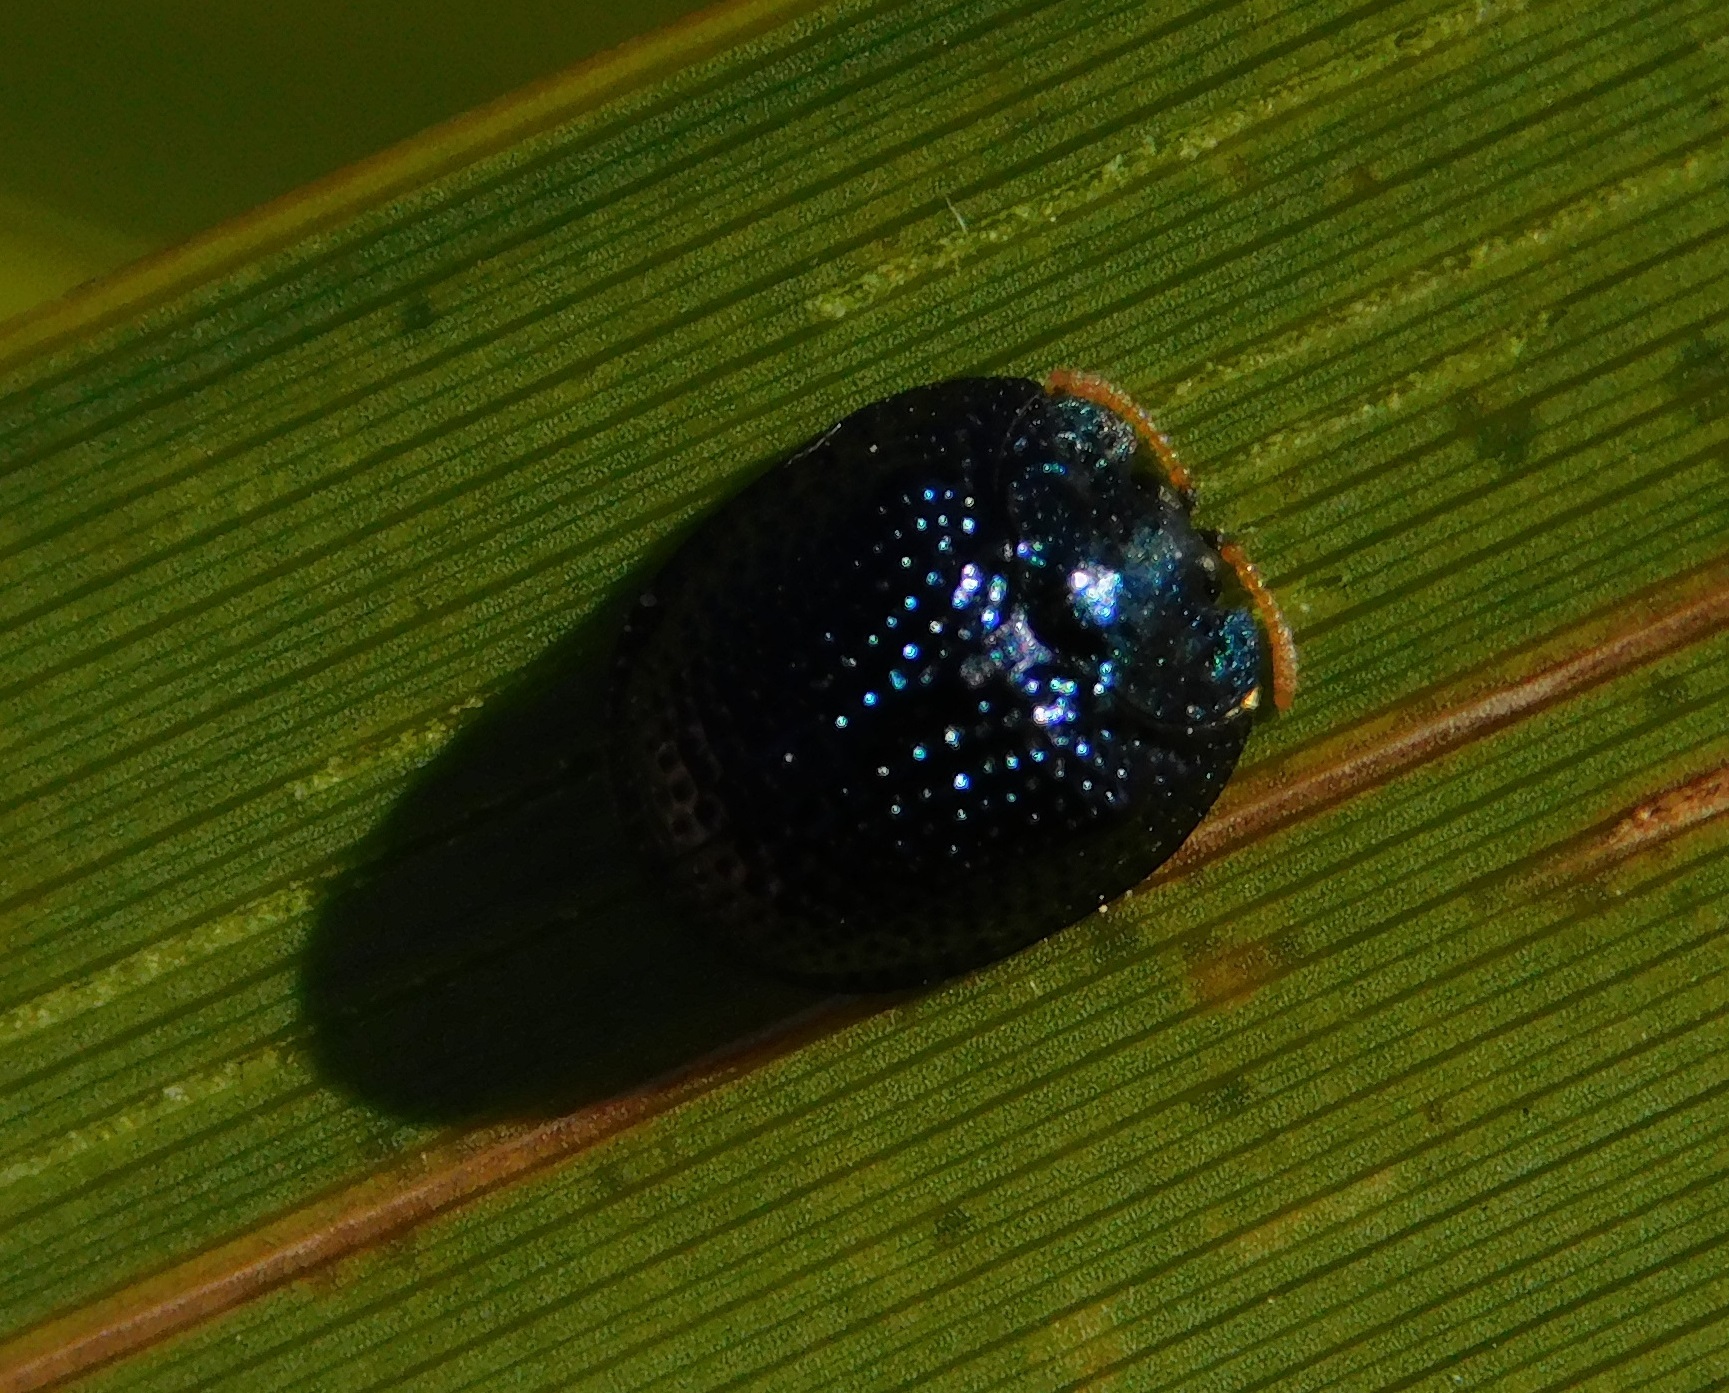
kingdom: Animalia
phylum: Arthropoda
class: Insecta
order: Coleoptera
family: Chrysomelidae
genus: Hemisphaerota
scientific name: Hemisphaerota cyanea
